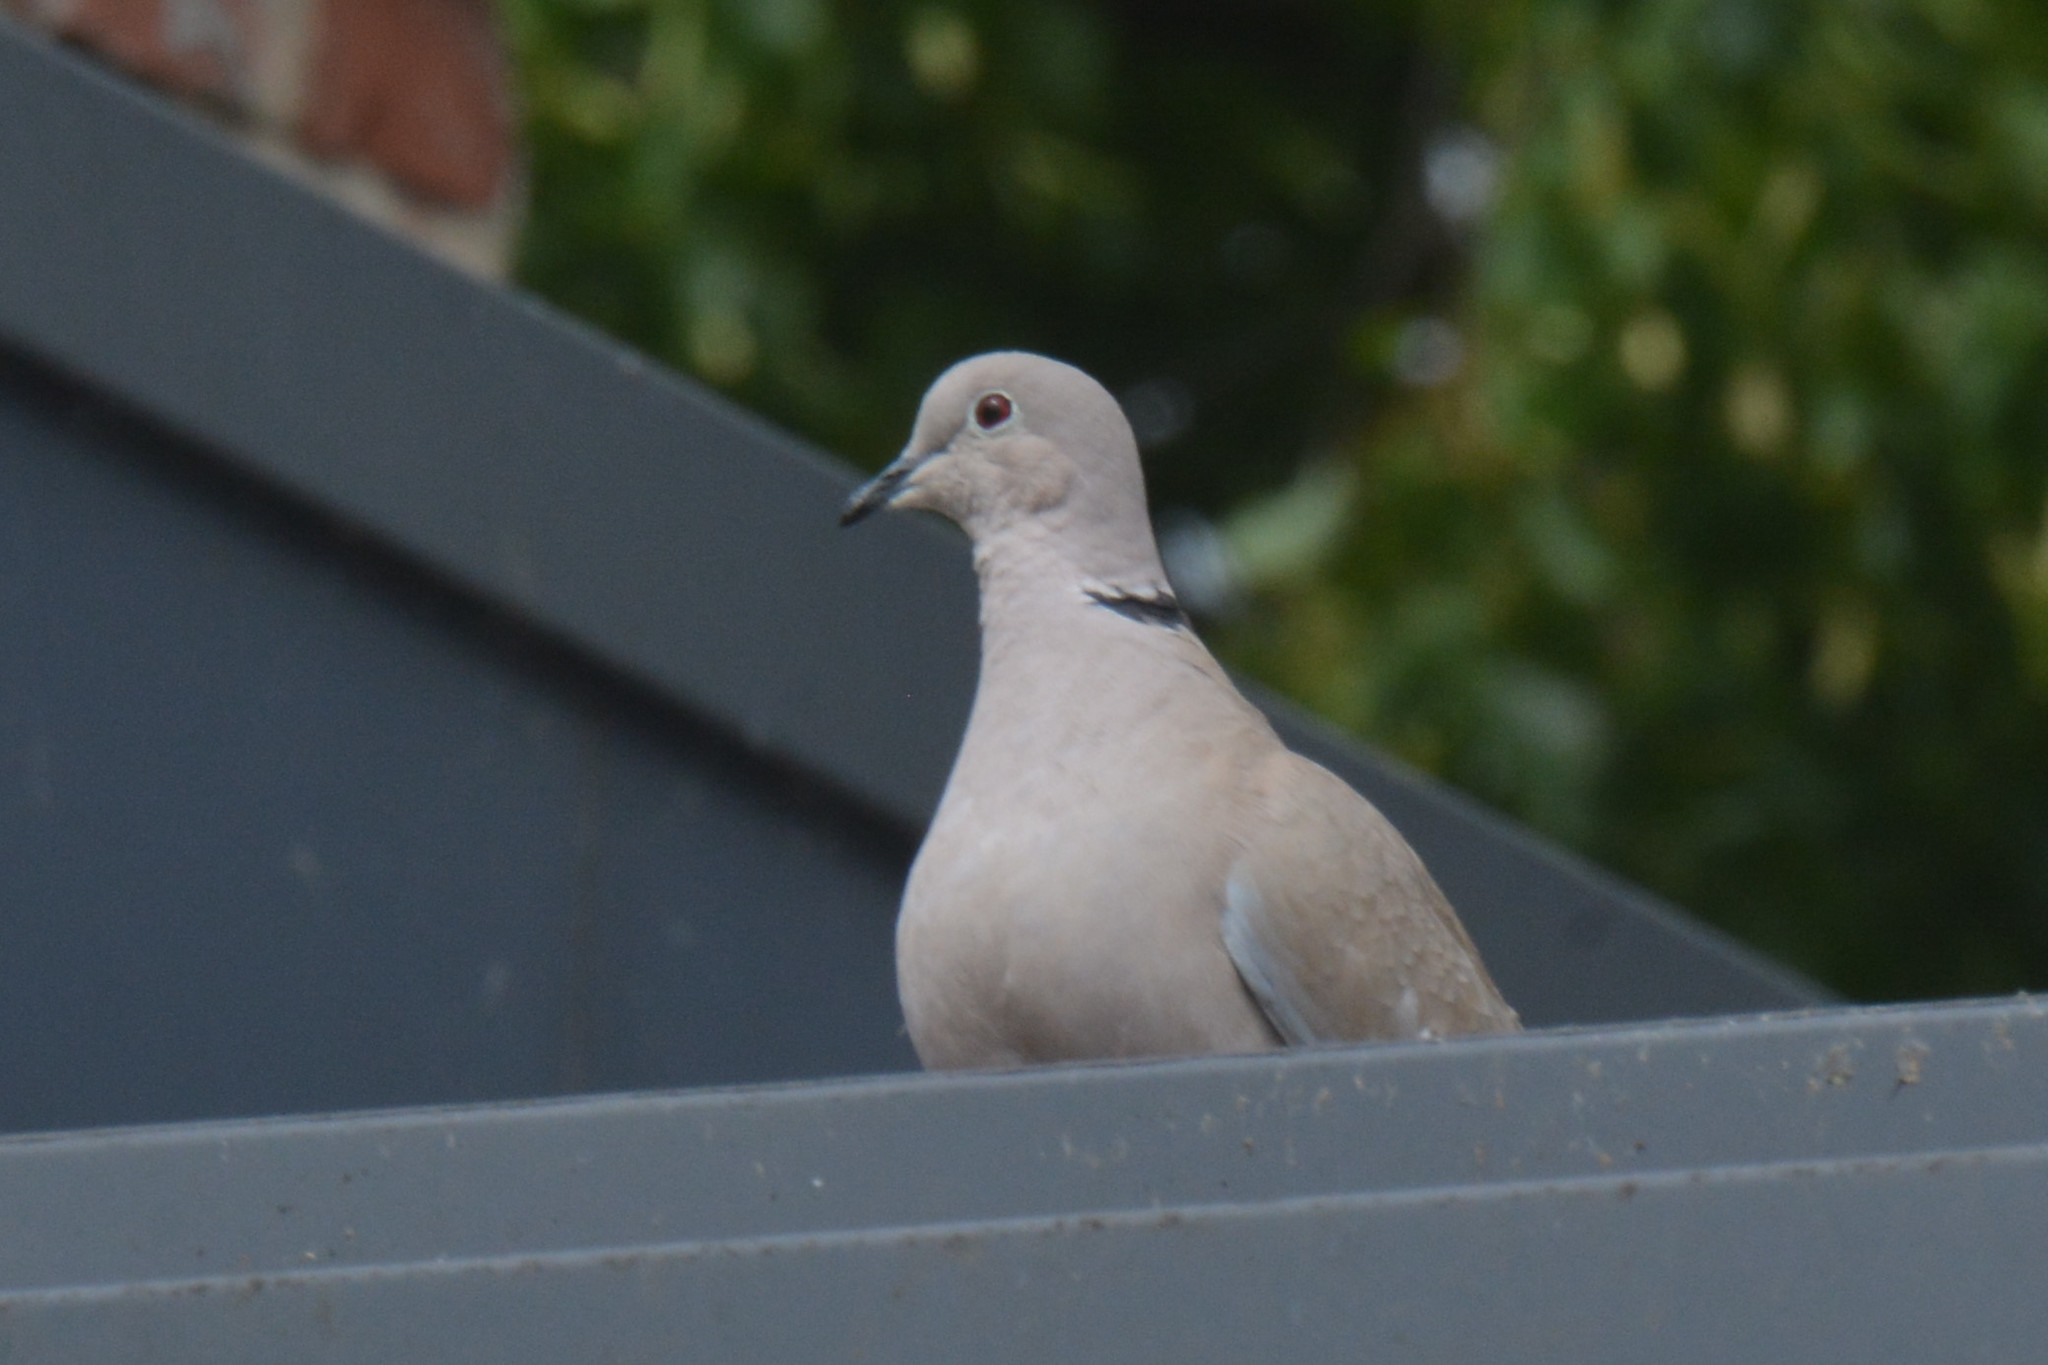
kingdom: Animalia
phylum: Chordata
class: Aves
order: Columbiformes
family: Columbidae
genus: Streptopelia
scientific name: Streptopelia decaocto
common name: Eurasian collared dove
